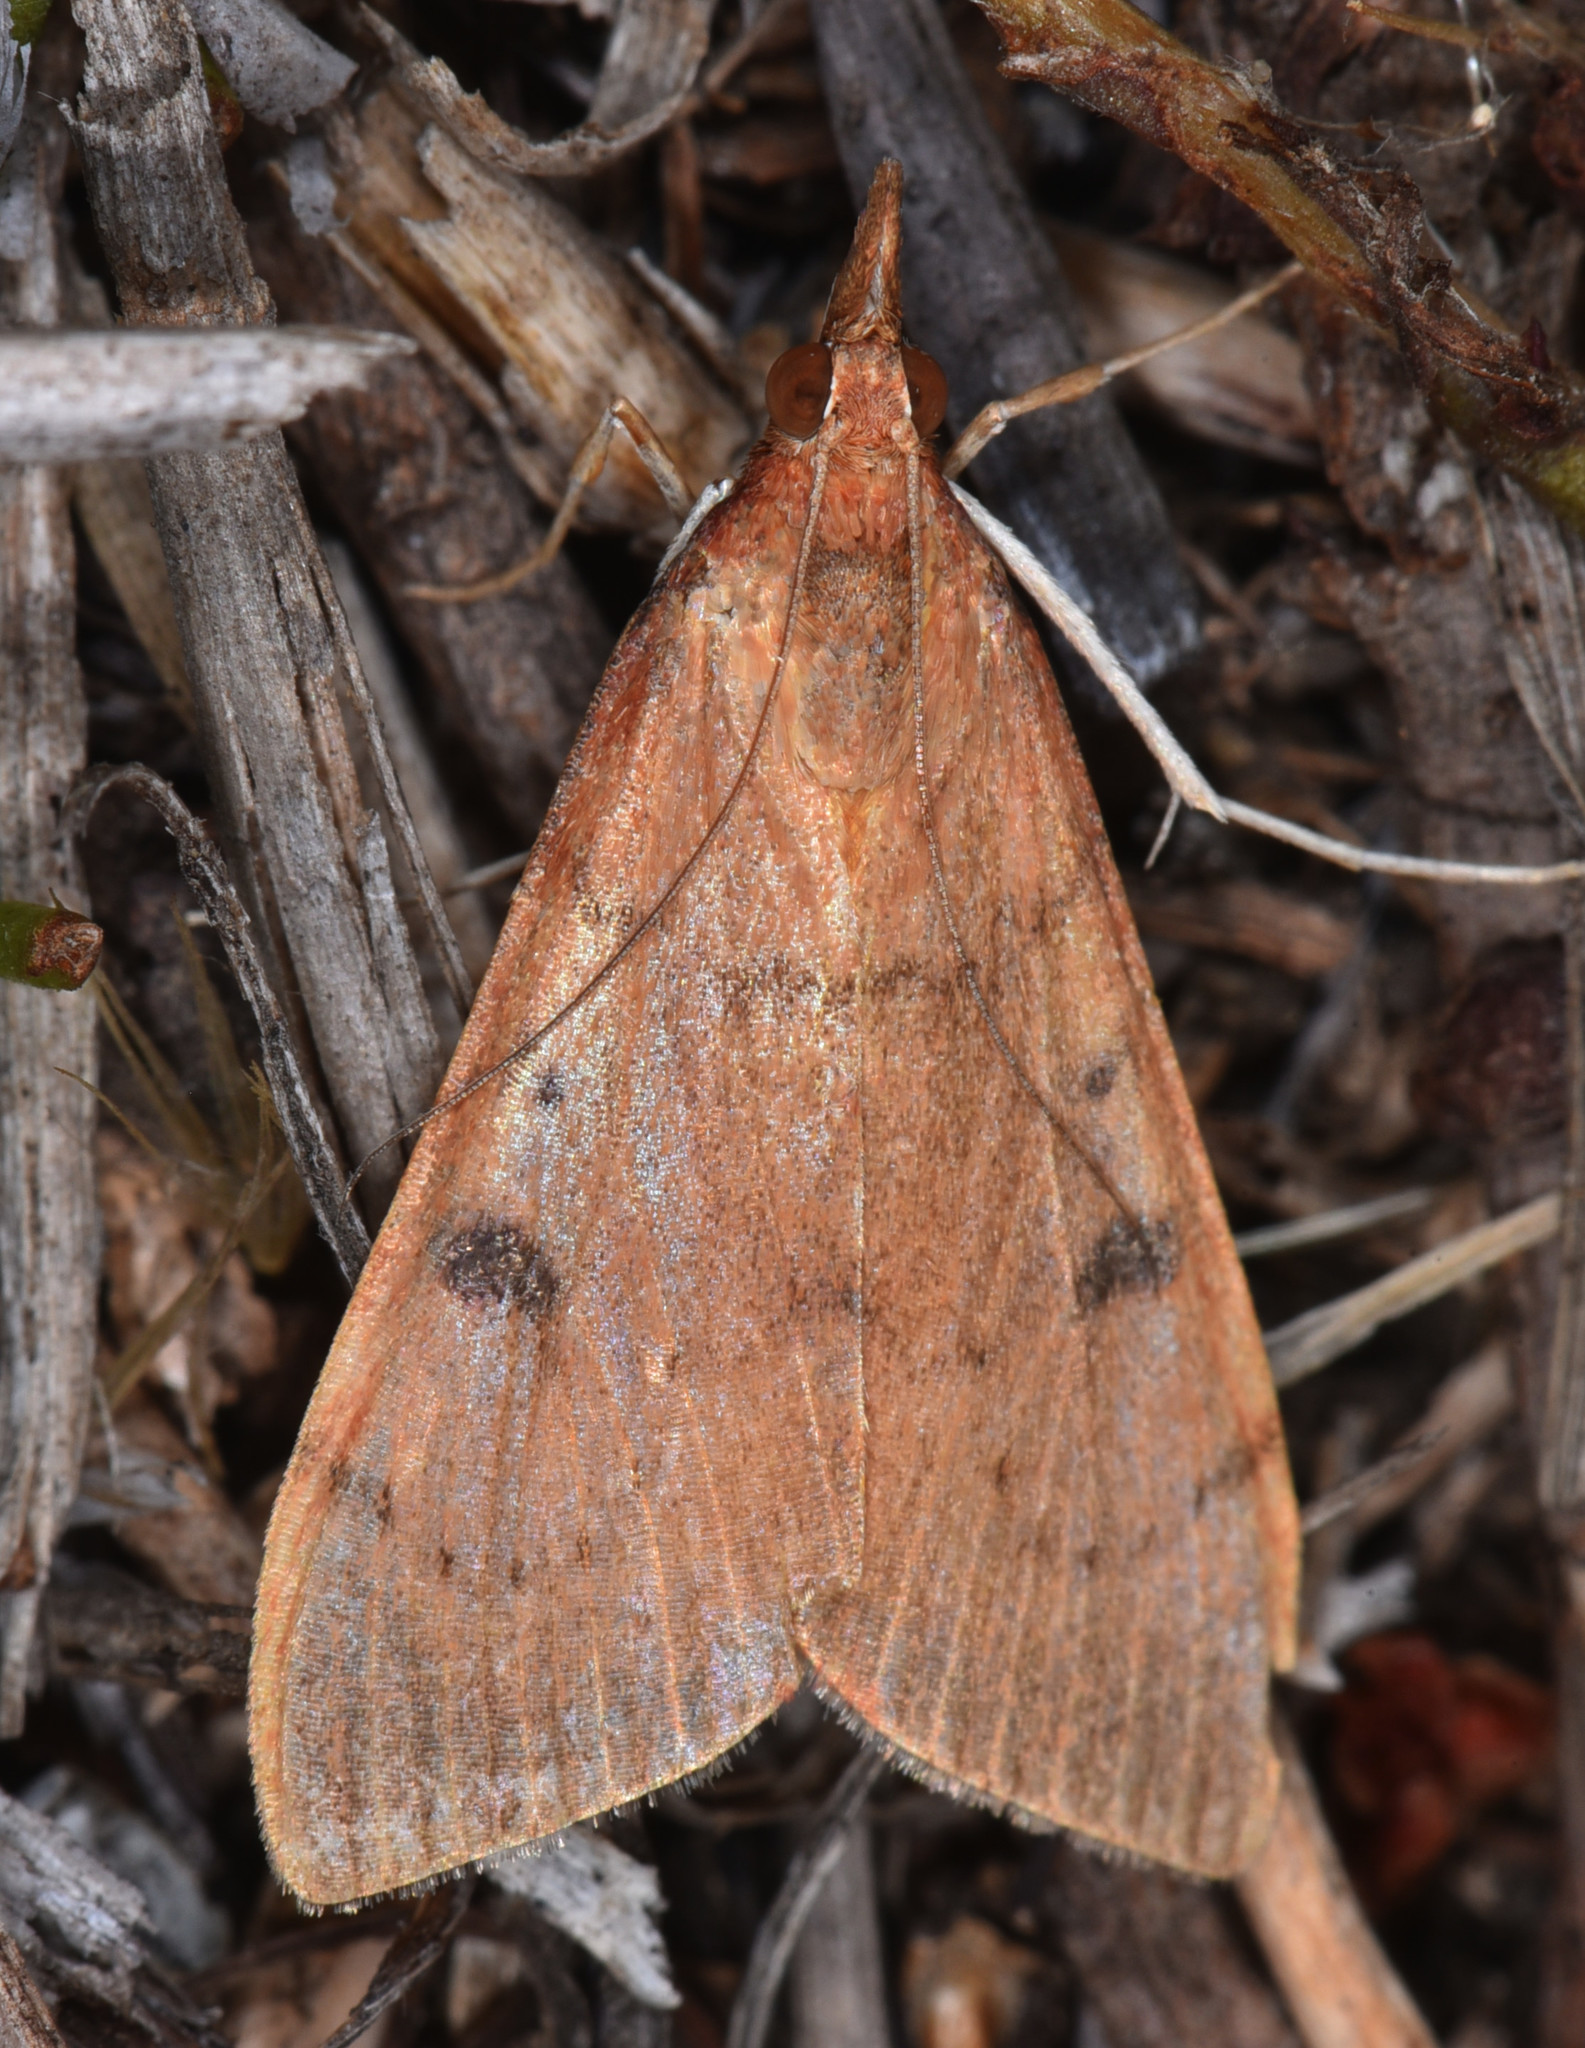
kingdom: Animalia
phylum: Arthropoda
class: Insecta
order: Lepidoptera
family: Crambidae
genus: Uresiphita
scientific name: Uresiphita reversalis
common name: Genista broom moth
